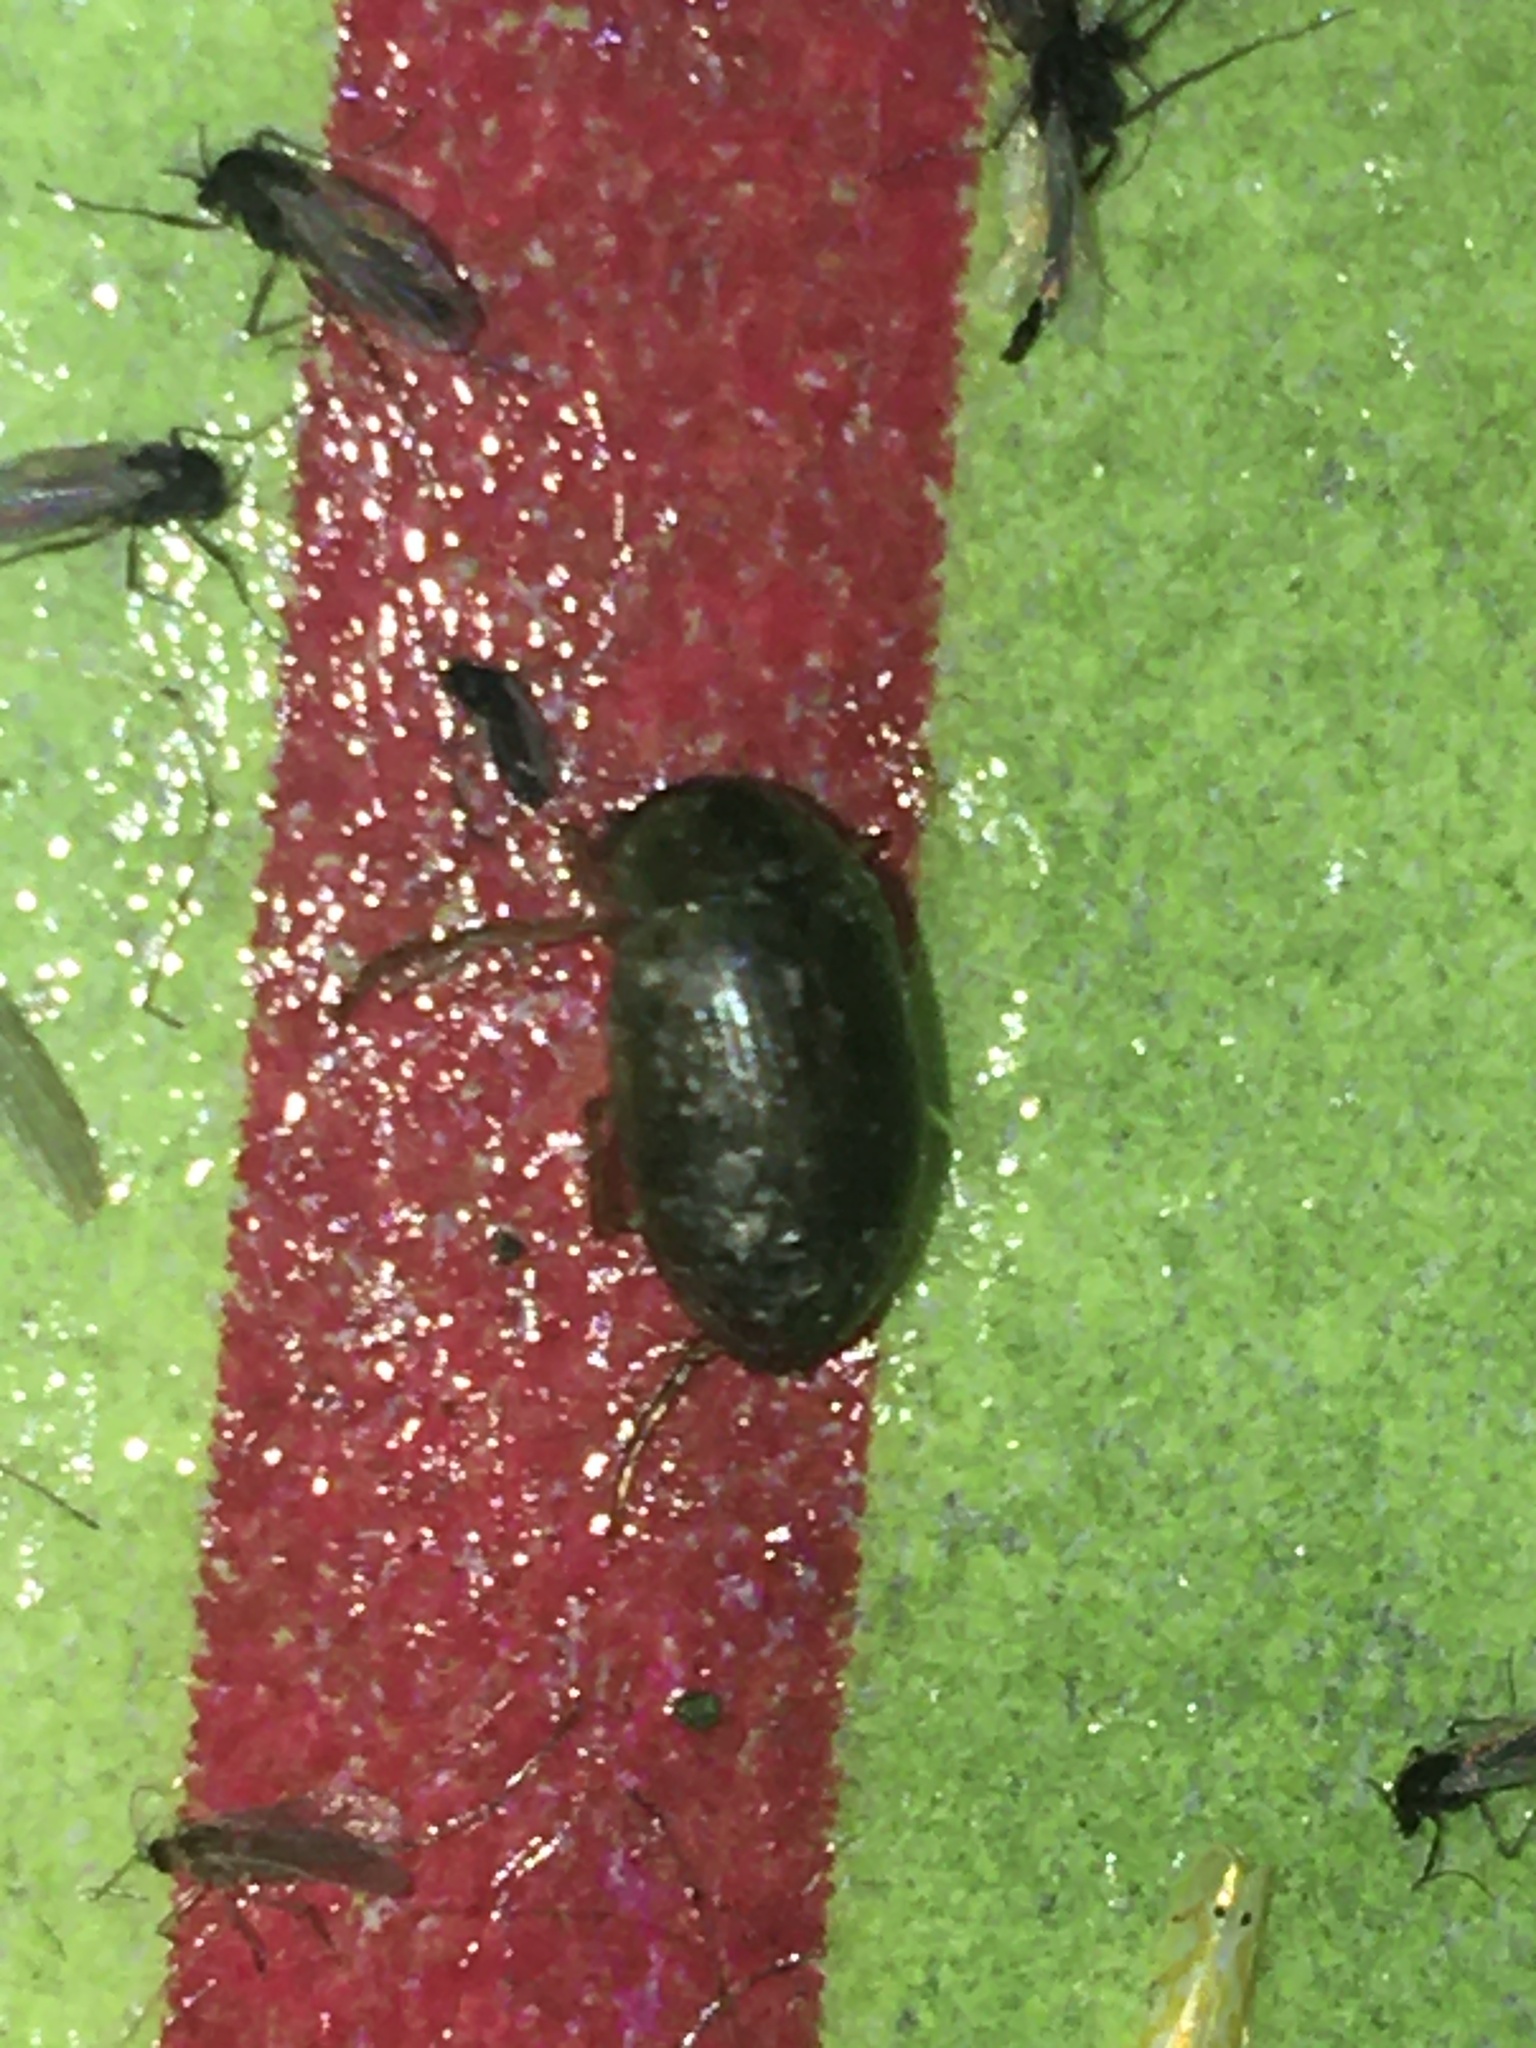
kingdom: Animalia
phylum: Arthropoda
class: Insecta
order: Coleoptera
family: Hydrophilidae
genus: Berosus
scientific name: Berosus
